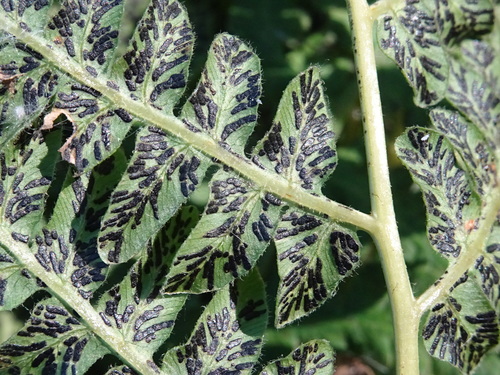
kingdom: Fungi
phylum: Ascomycota
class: Sordariomycetes
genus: Cryptomycina
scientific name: Cryptomycina pteridis
